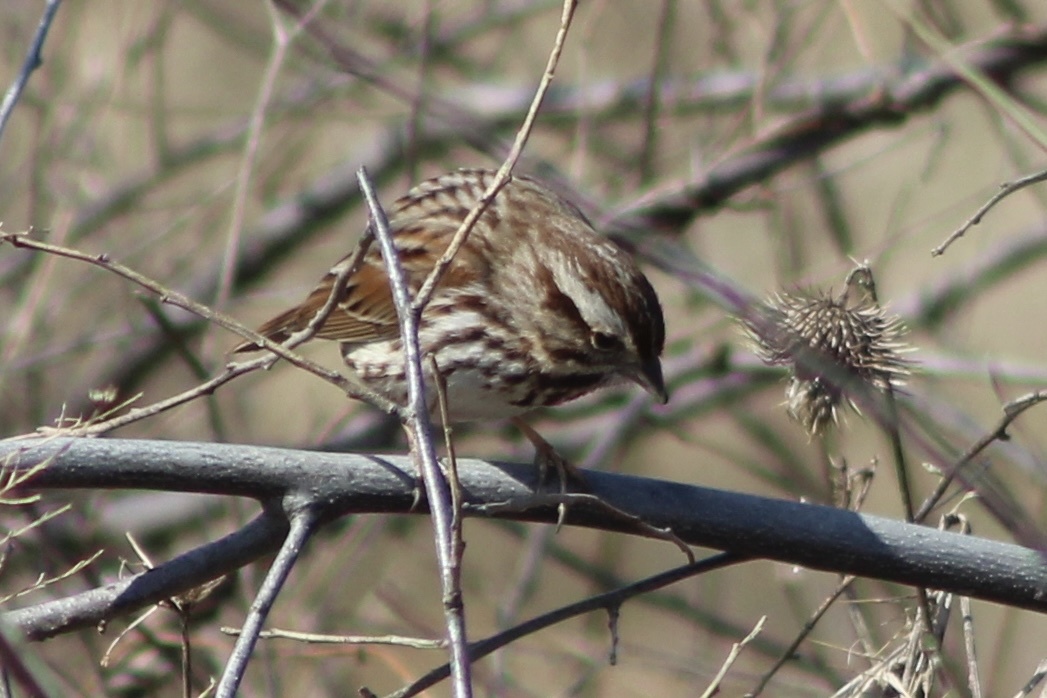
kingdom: Animalia
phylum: Chordata
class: Aves
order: Passeriformes
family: Passerellidae
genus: Melospiza
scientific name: Melospiza melodia
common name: Song sparrow
